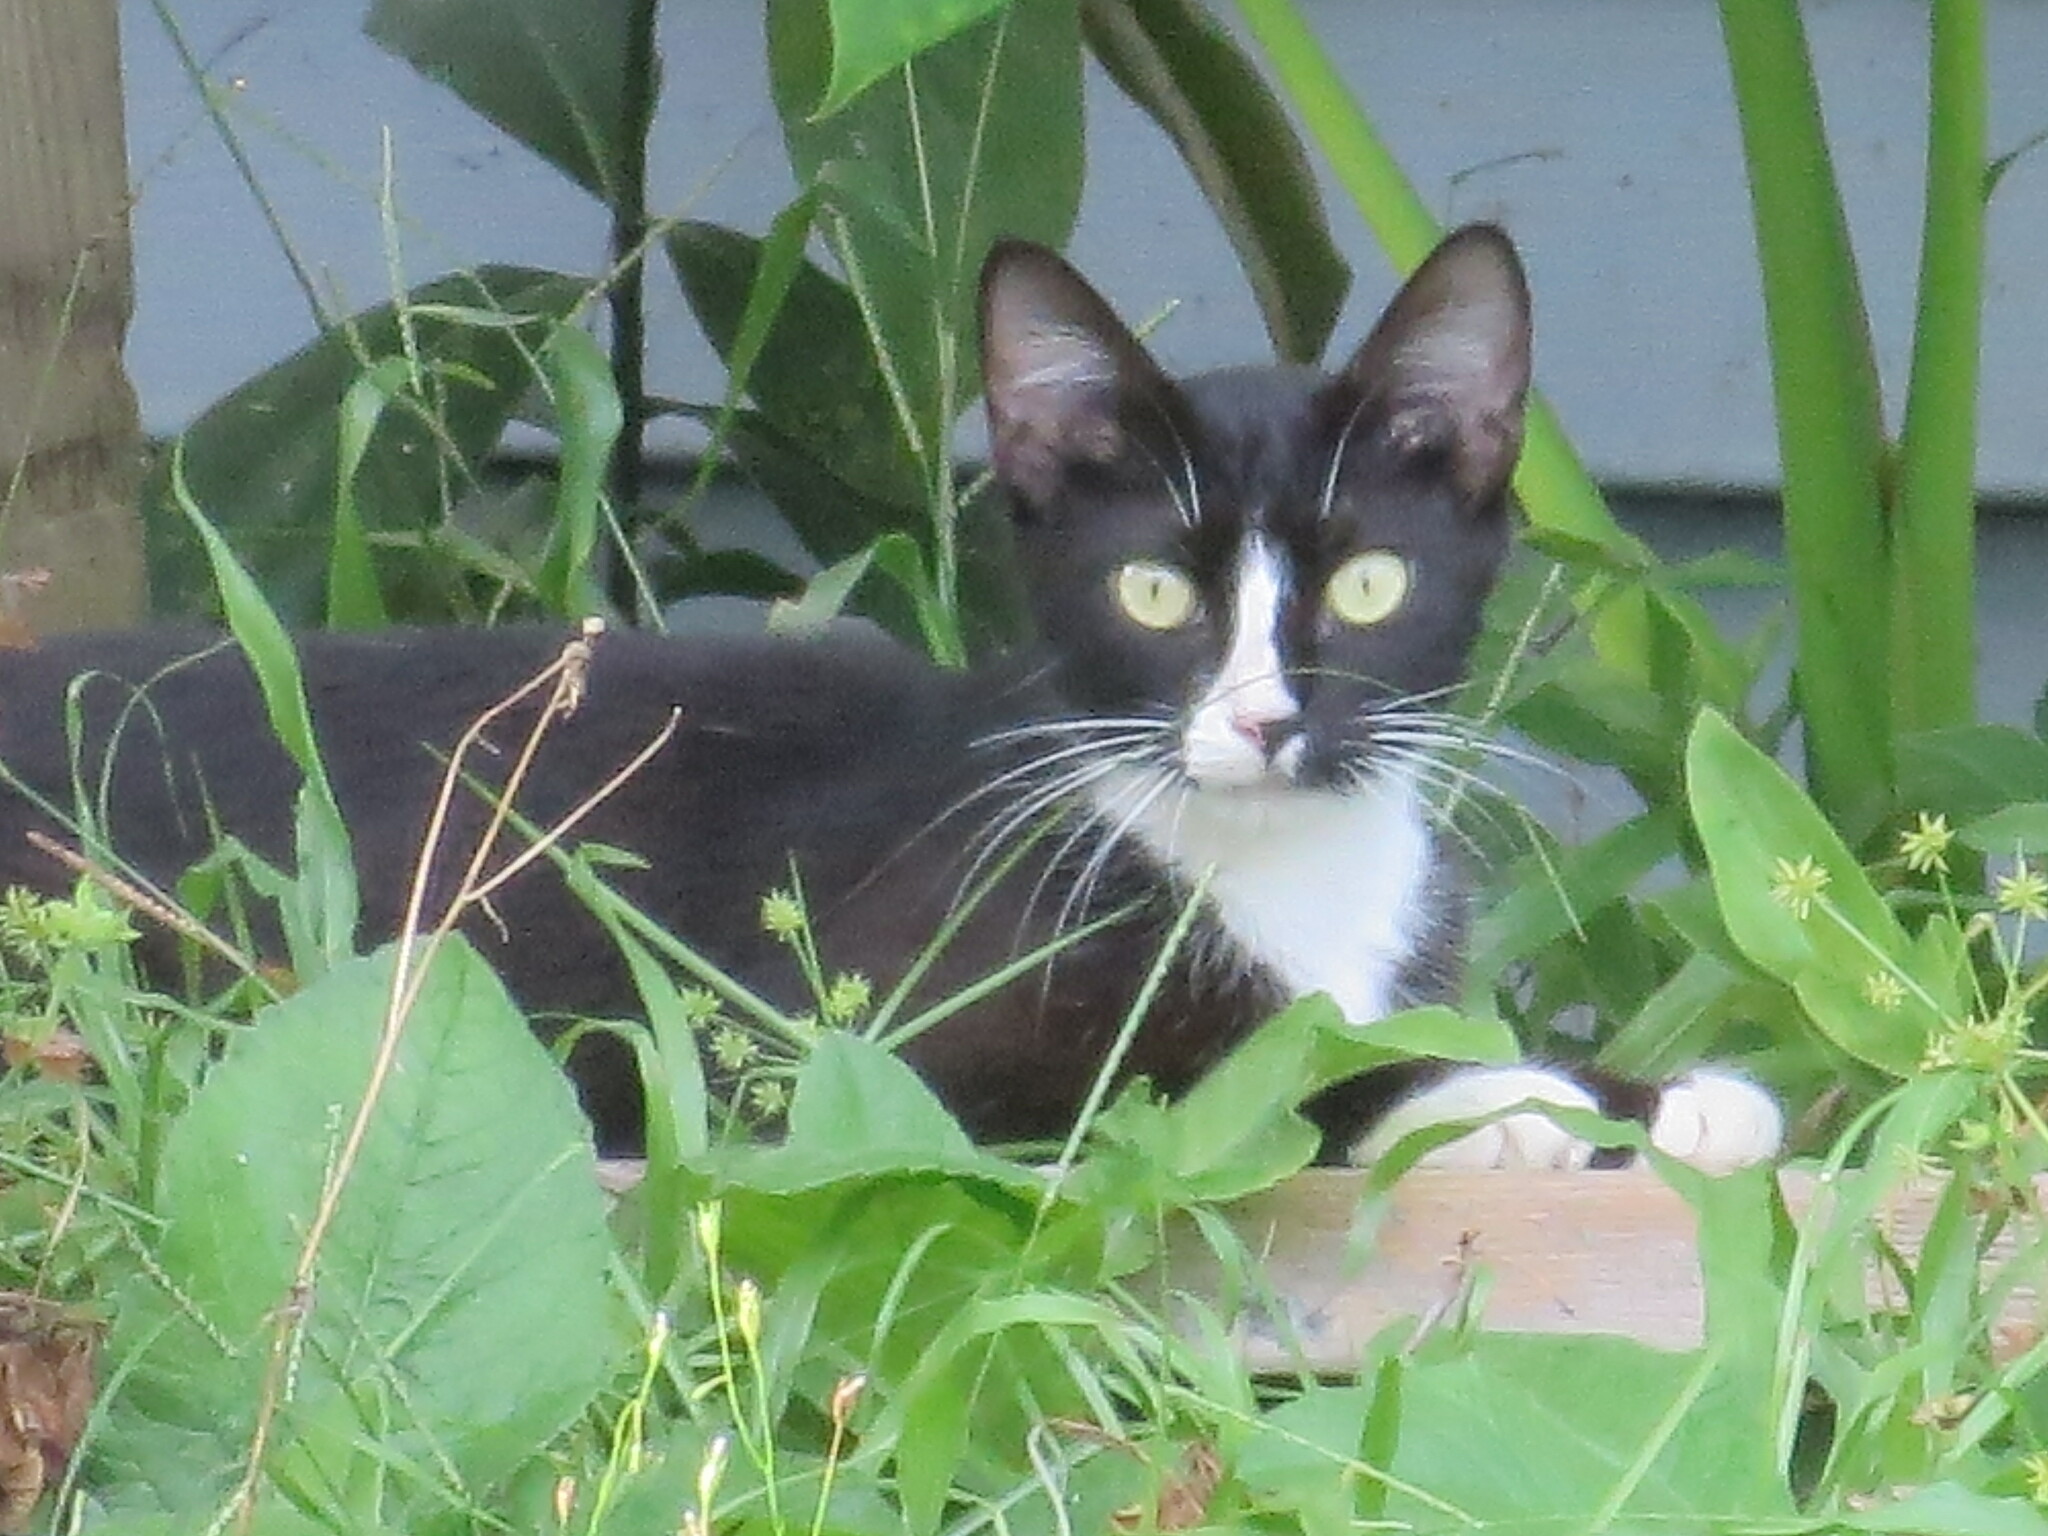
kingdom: Animalia
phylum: Chordata
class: Mammalia
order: Carnivora
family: Felidae
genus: Felis
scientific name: Felis catus
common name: Domestic cat
